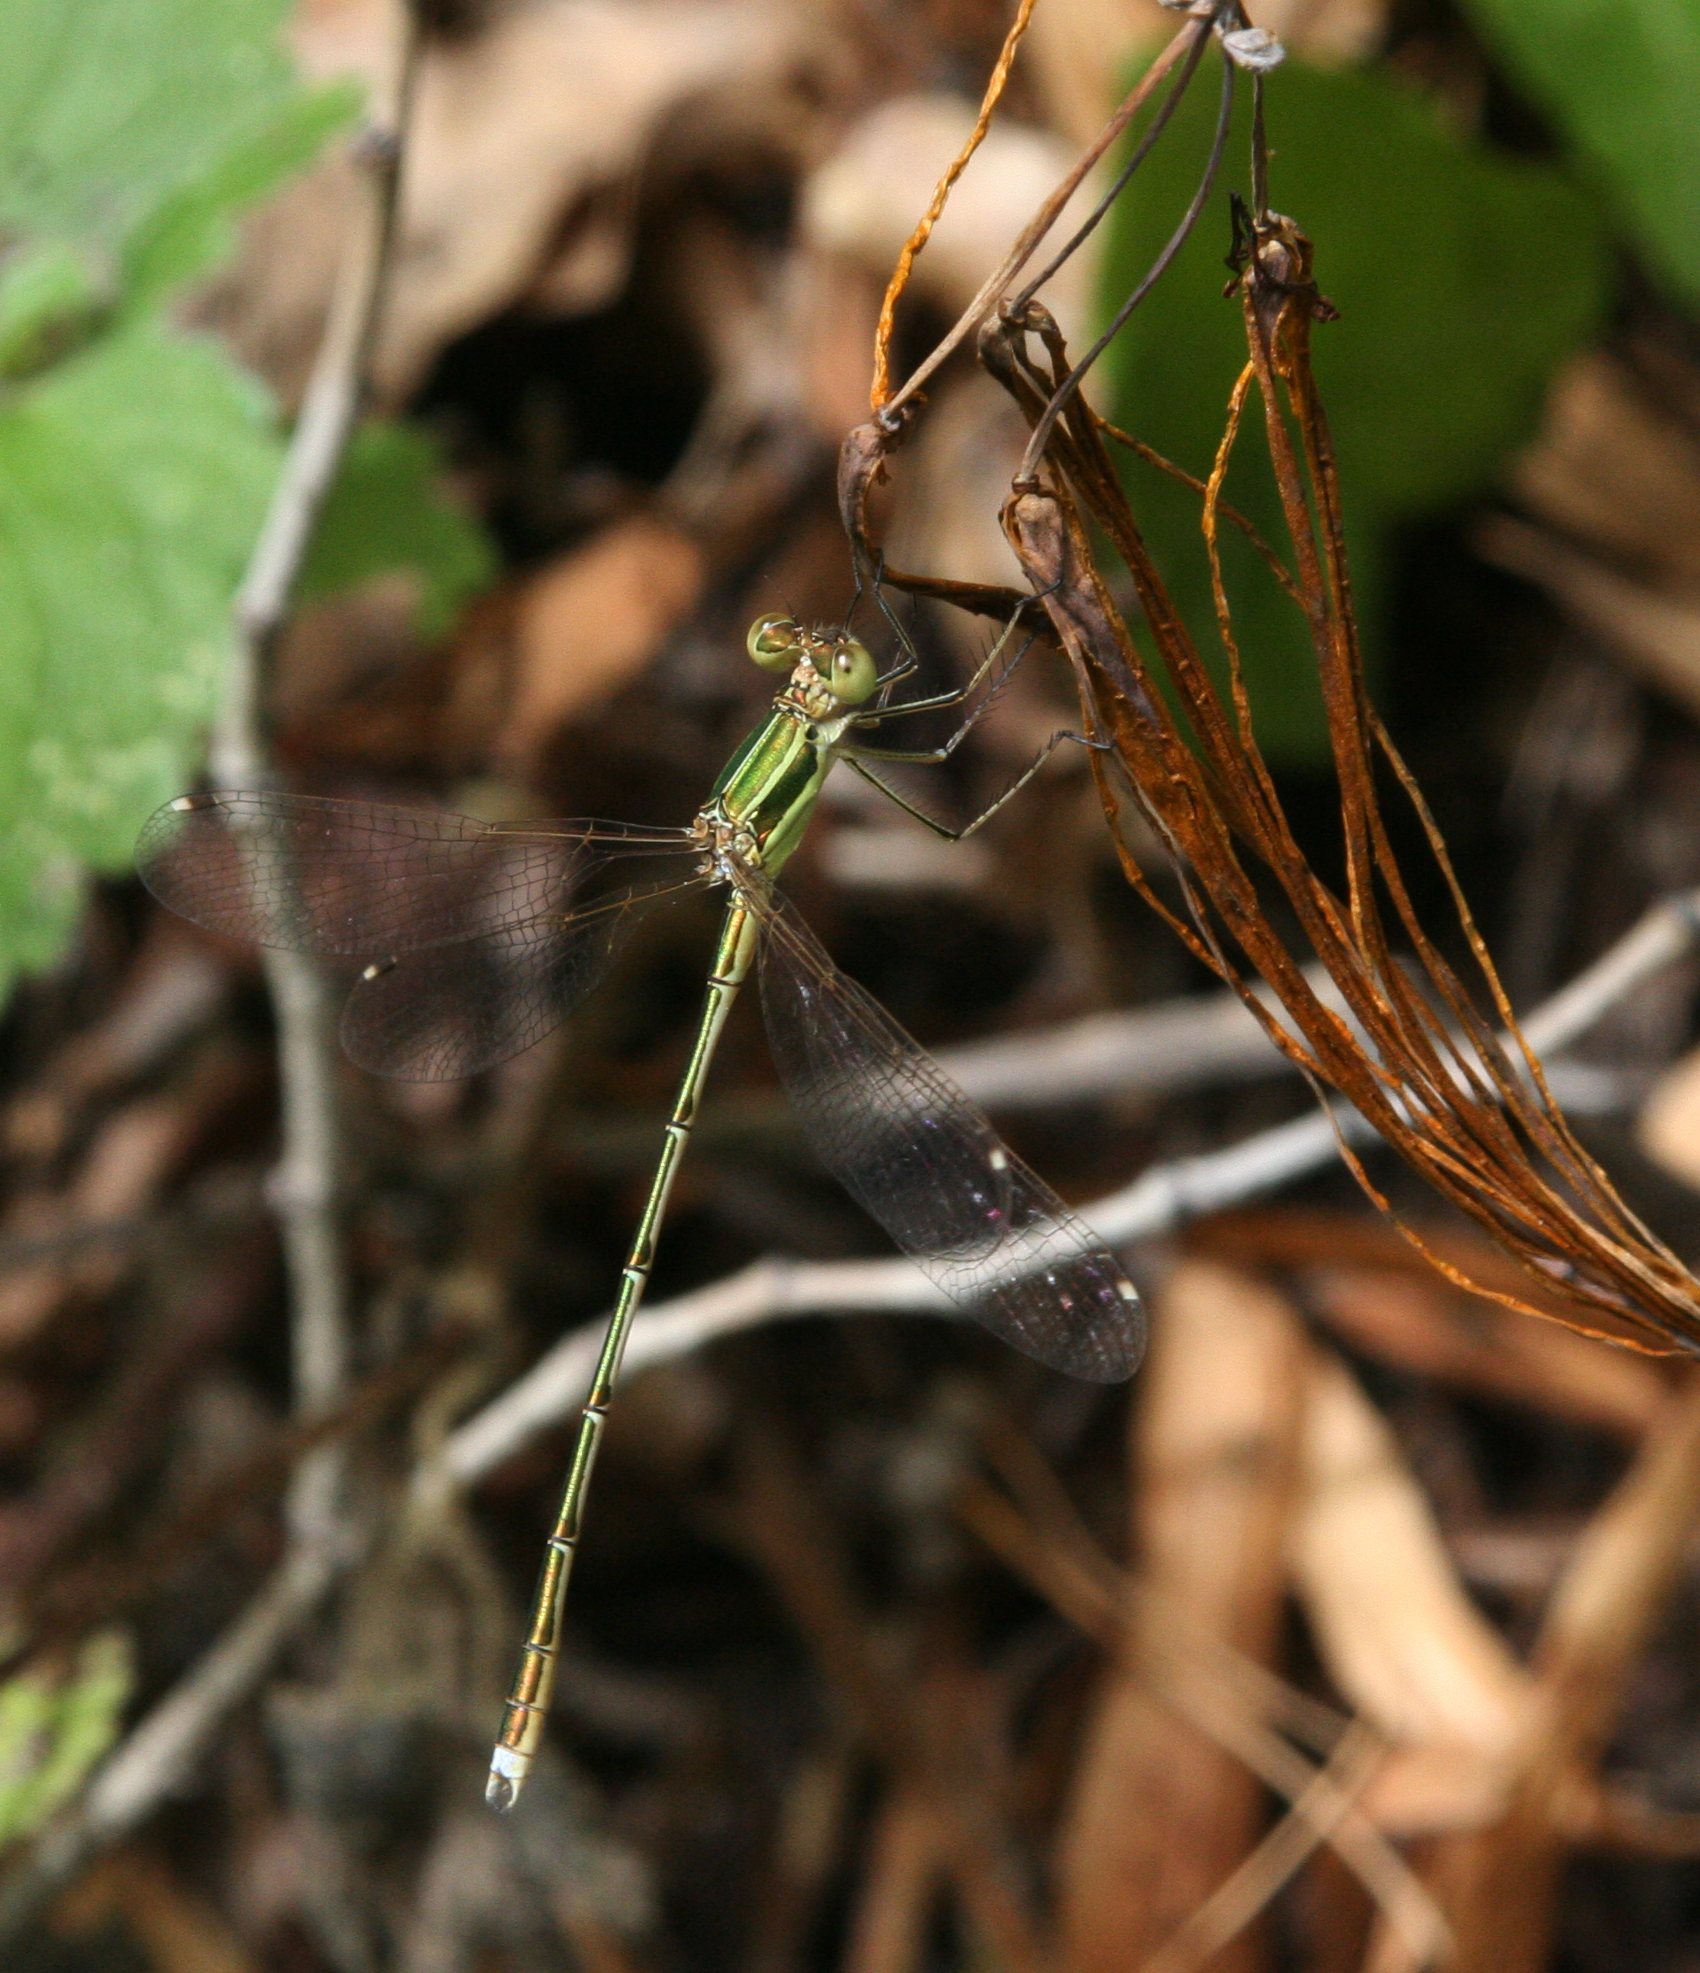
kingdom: Animalia
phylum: Arthropoda
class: Insecta
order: Odonata
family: Lestidae
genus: Lestes
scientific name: Lestes barbarus
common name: Migrant spreadwing
